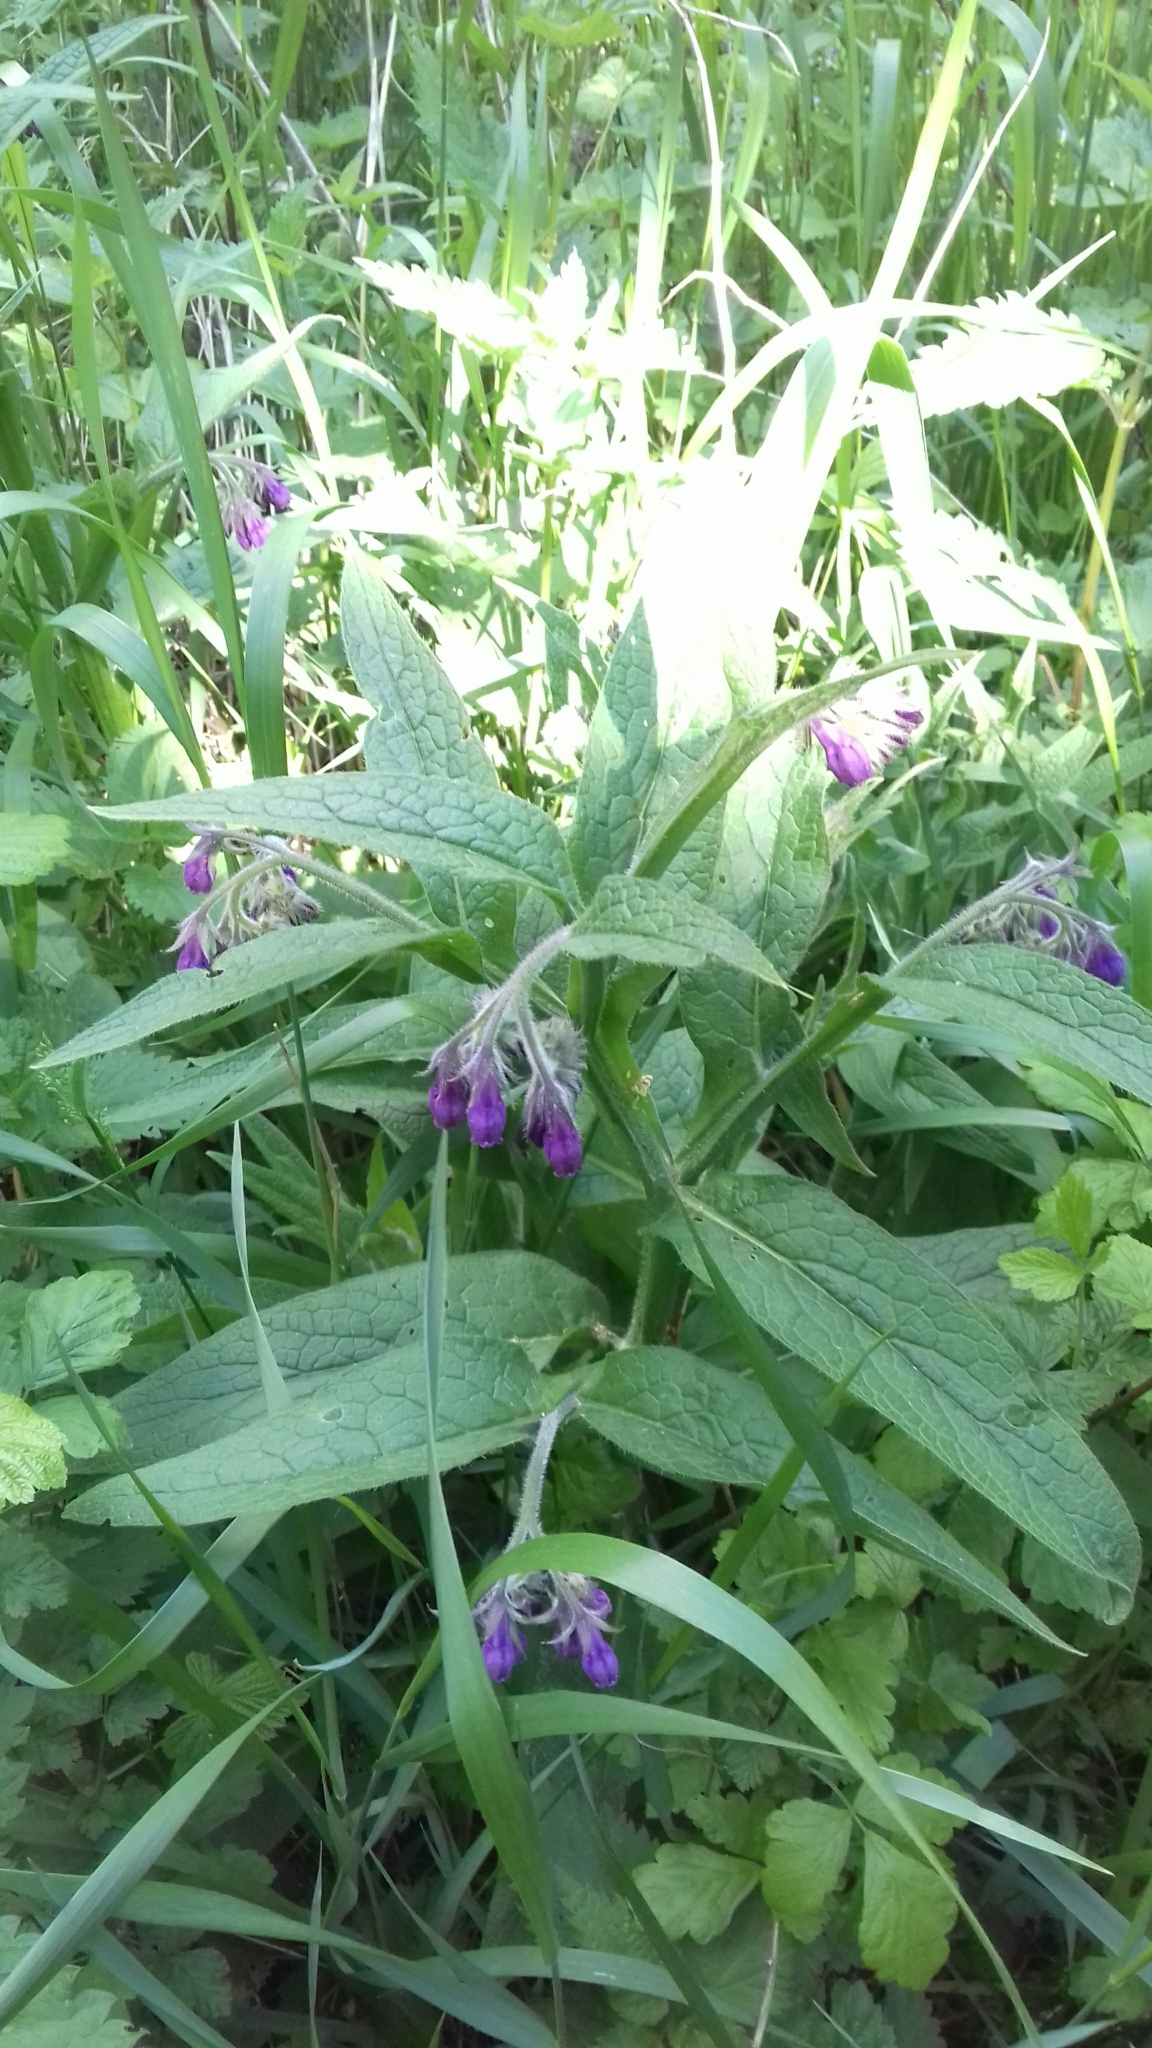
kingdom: Plantae
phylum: Tracheophyta
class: Magnoliopsida
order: Boraginales
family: Boraginaceae
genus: Symphytum
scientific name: Symphytum officinale
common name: Common comfrey
